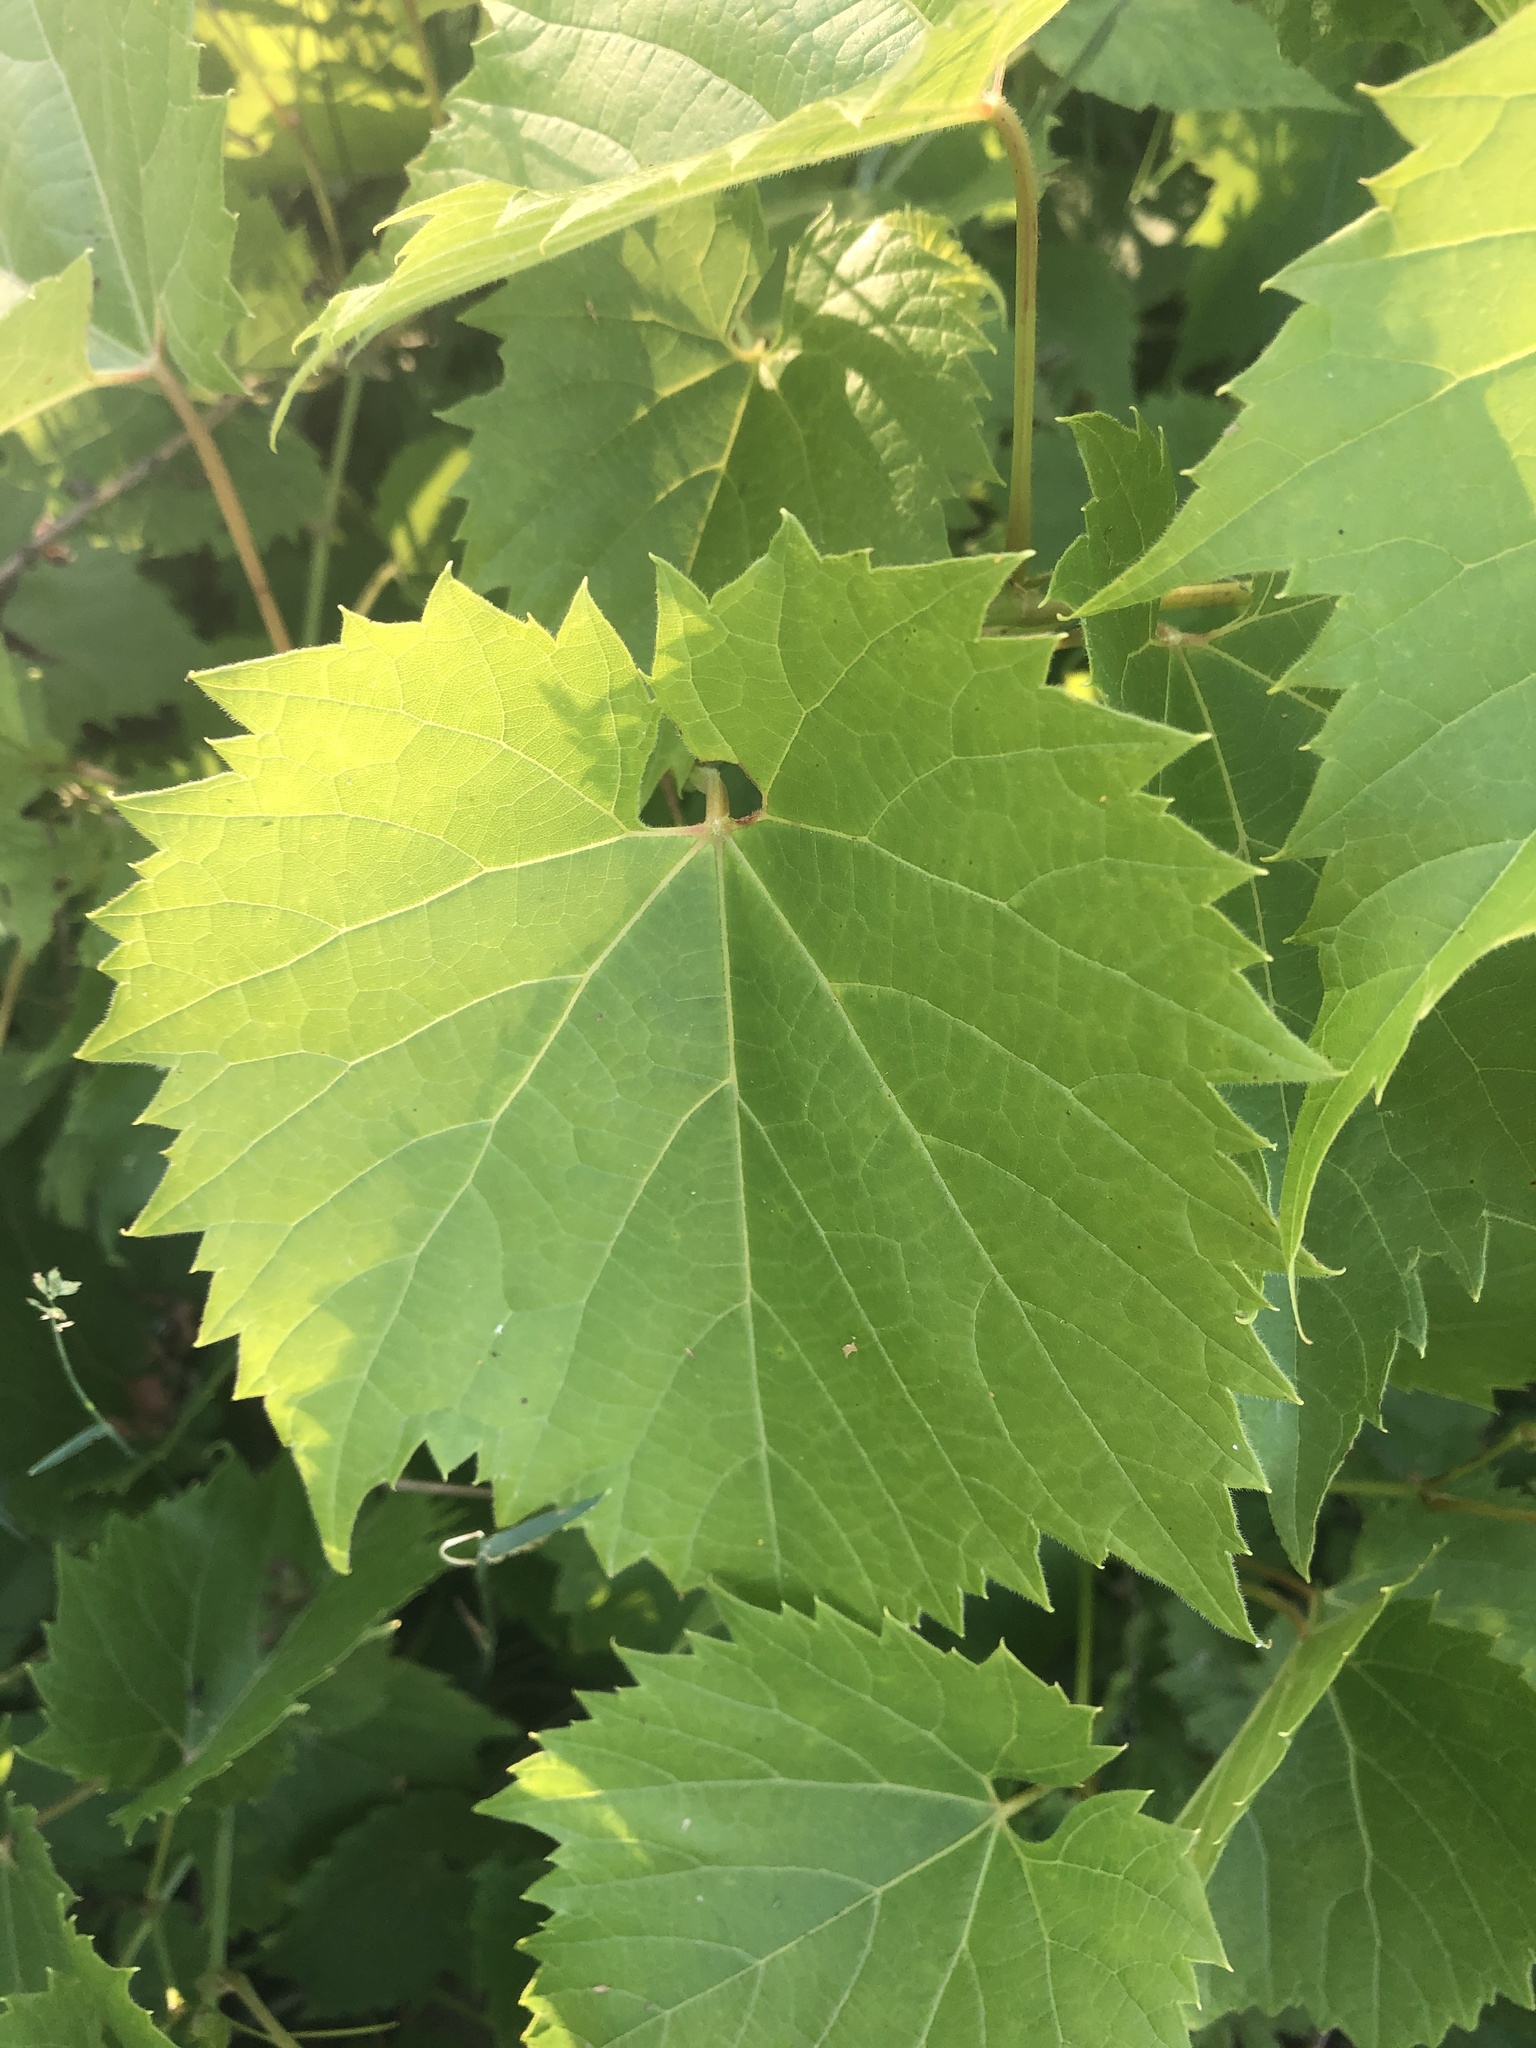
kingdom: Plantae
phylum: Tracheophyta
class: Magnoliopsida
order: Vitales
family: Vitaceae
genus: Vitis
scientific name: Vitis riparia
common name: Frost grape
